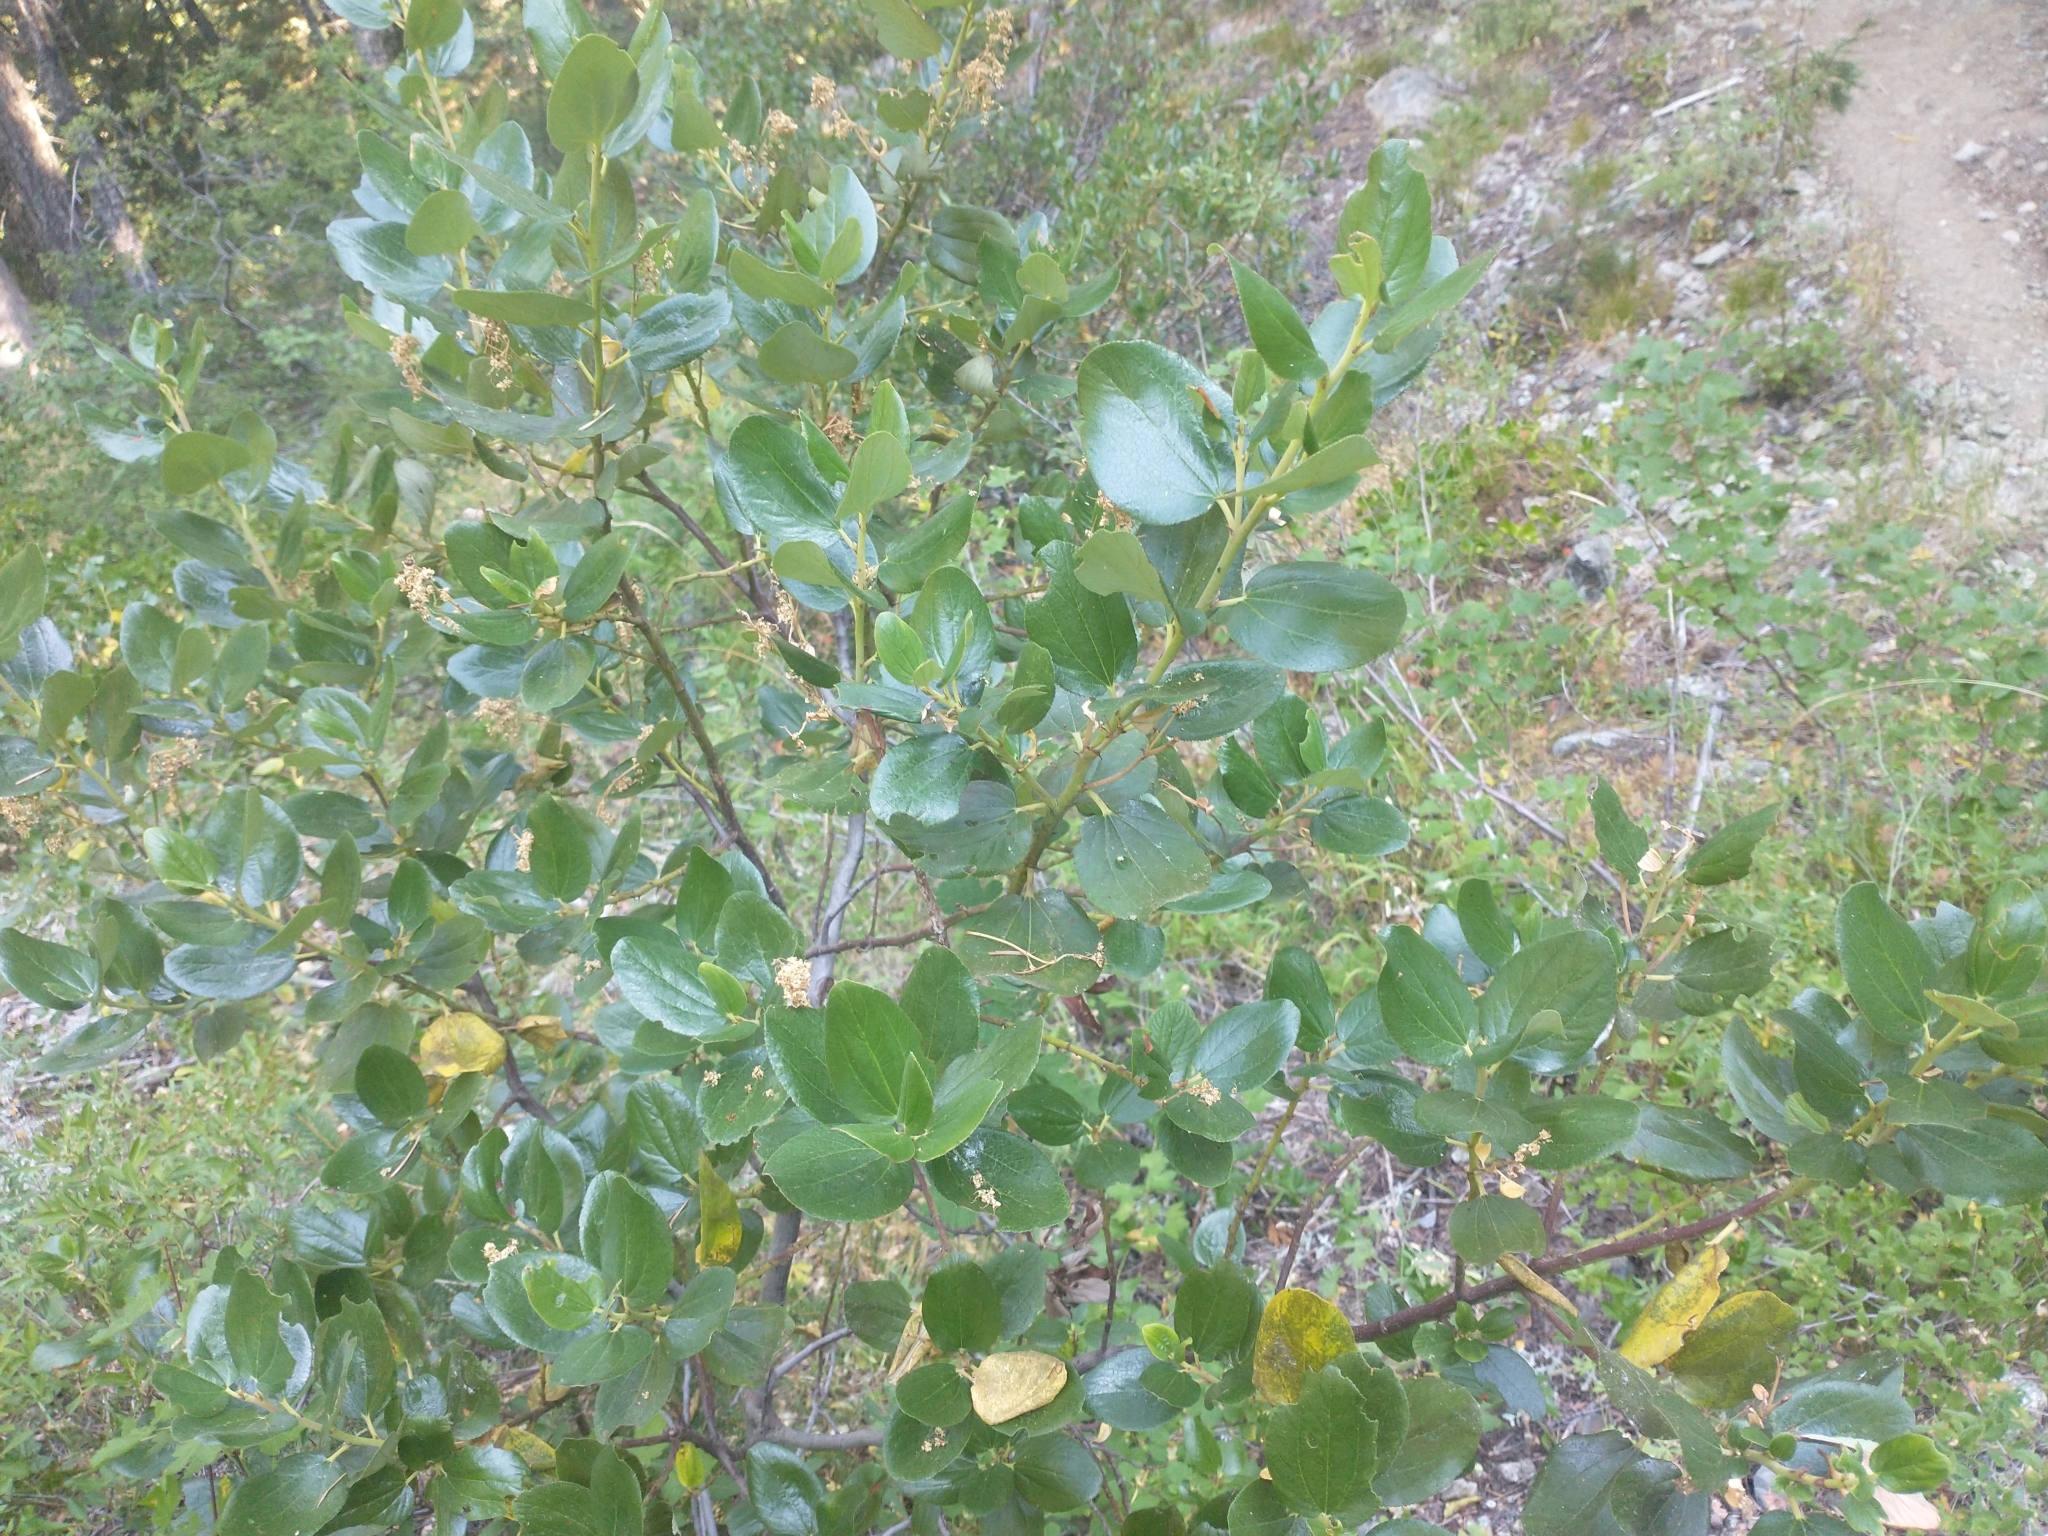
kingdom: Plantae
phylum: Tracheophyta
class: Magnoliopsida
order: Rosales
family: Rhamnaceae
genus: Ceanothus
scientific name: Ceanothus velutinus
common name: Snowbrush
